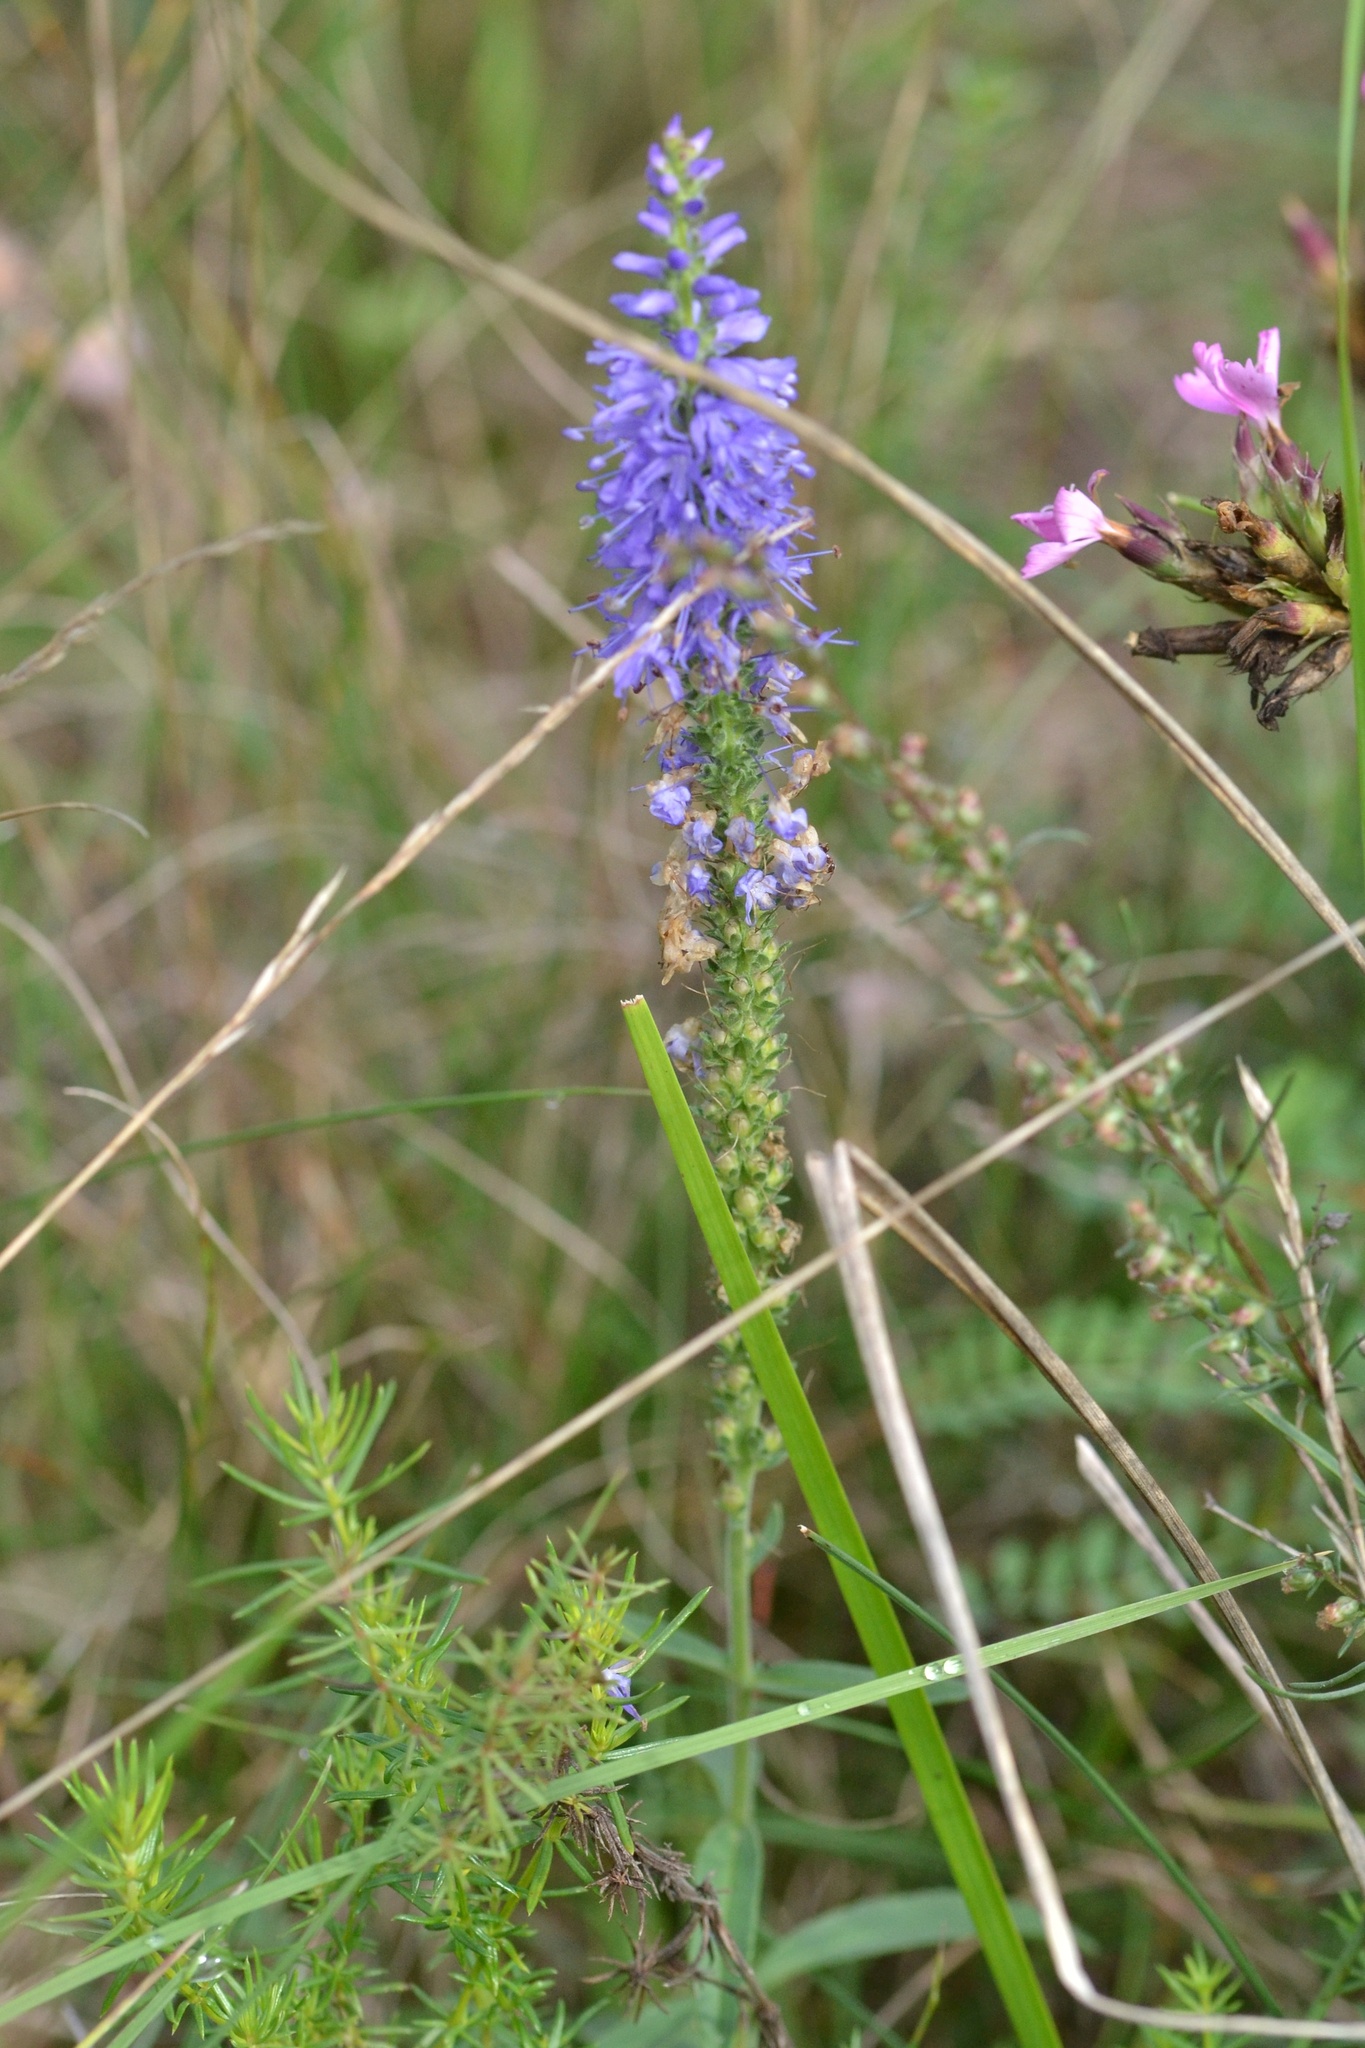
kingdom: Plantae
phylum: Tracheophyta
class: Magnoliopsida
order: Lamiales
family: Plantaginaceae
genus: Veronica
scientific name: Veronica spicata
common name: Spiked speedwell
